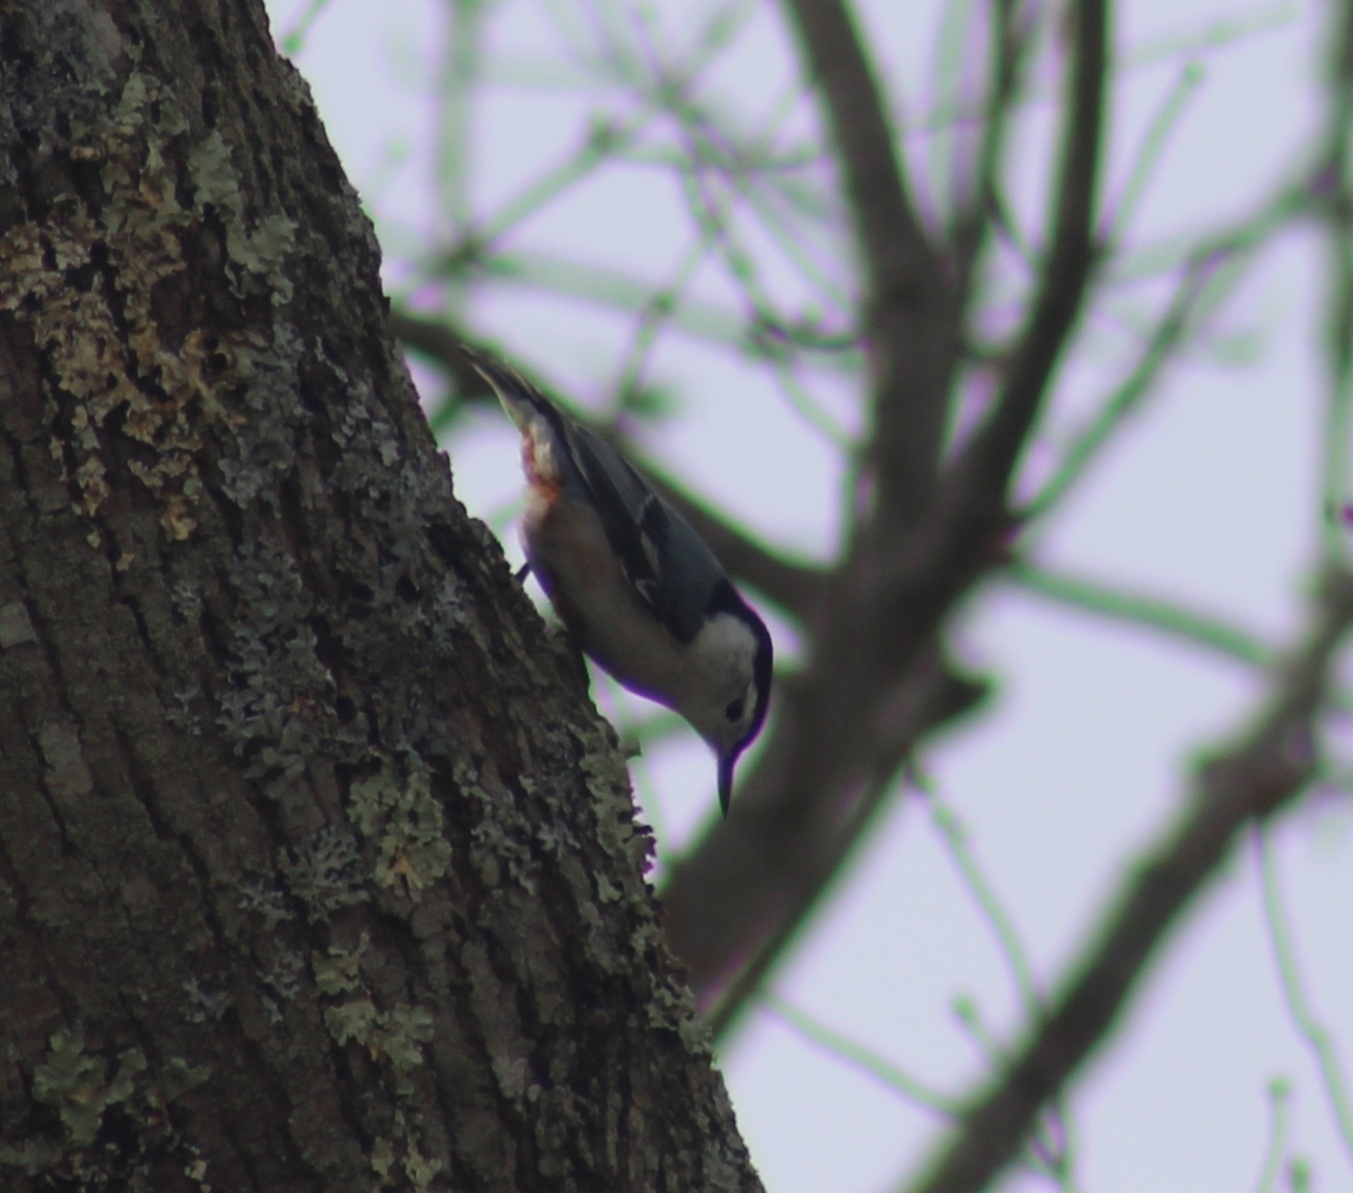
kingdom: Animalia
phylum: Chordata
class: Aves
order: Passeriformes
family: Sittidae
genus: Sitta
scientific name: Sitta carolinensis
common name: White-breasted nuthatch
